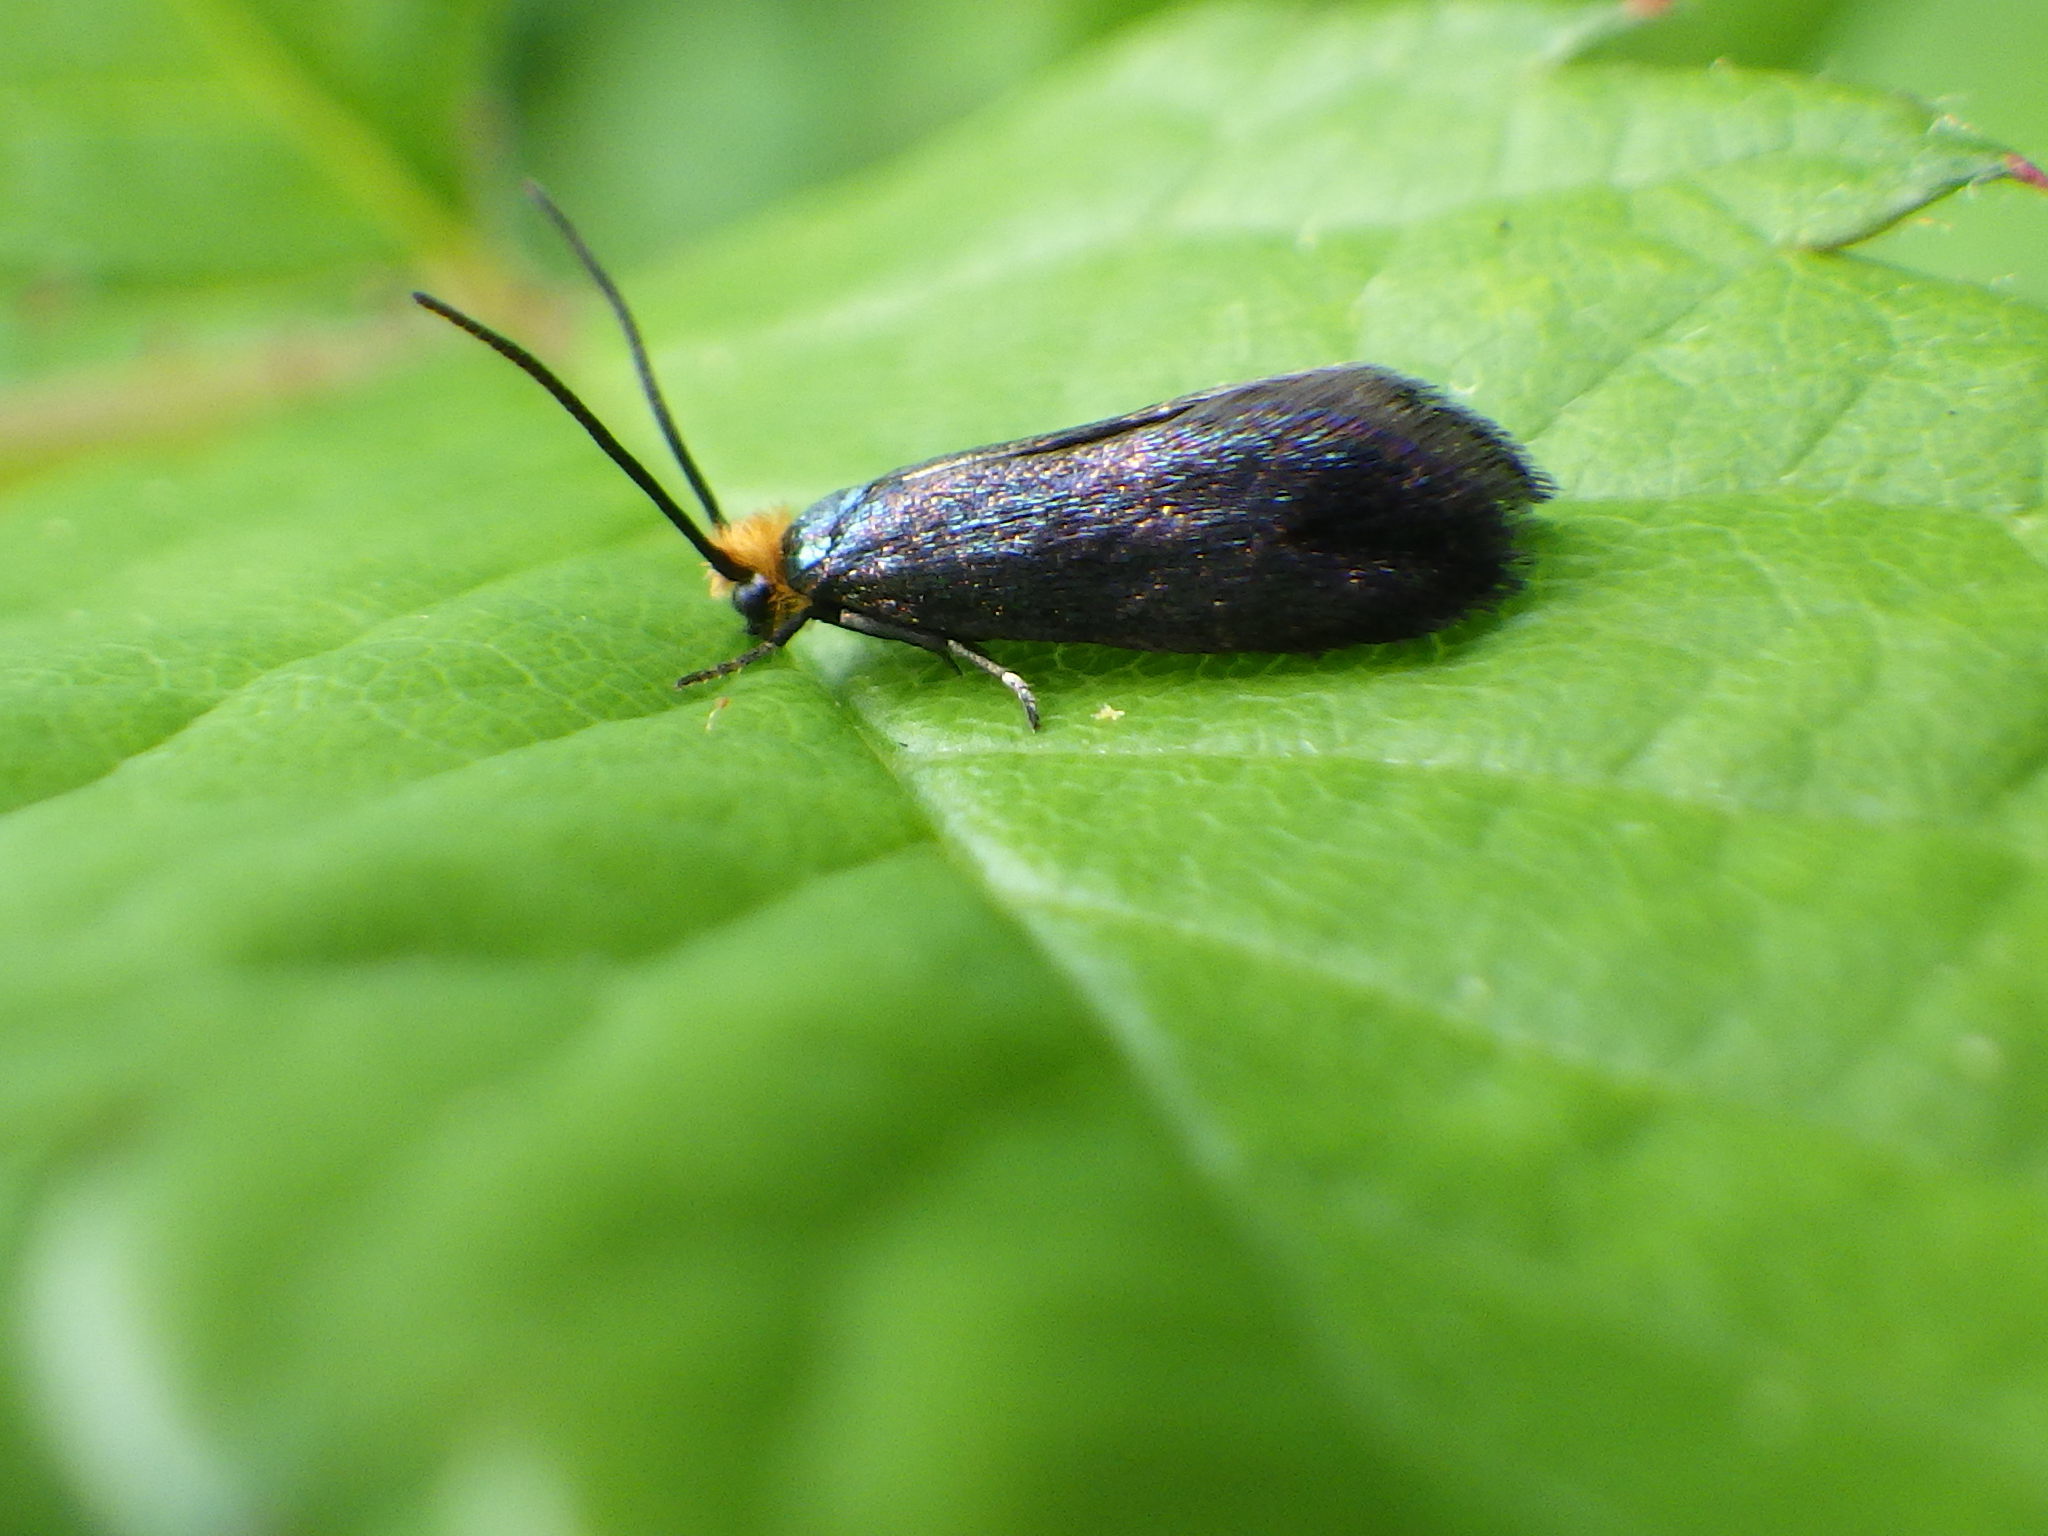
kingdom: Animalia
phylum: Arthropoda
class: Insecta
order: Lepidoptera
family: Incurvariidae
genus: Paraclemensia
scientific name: Paraclemensia acerifoliella
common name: Maple leafcutter
